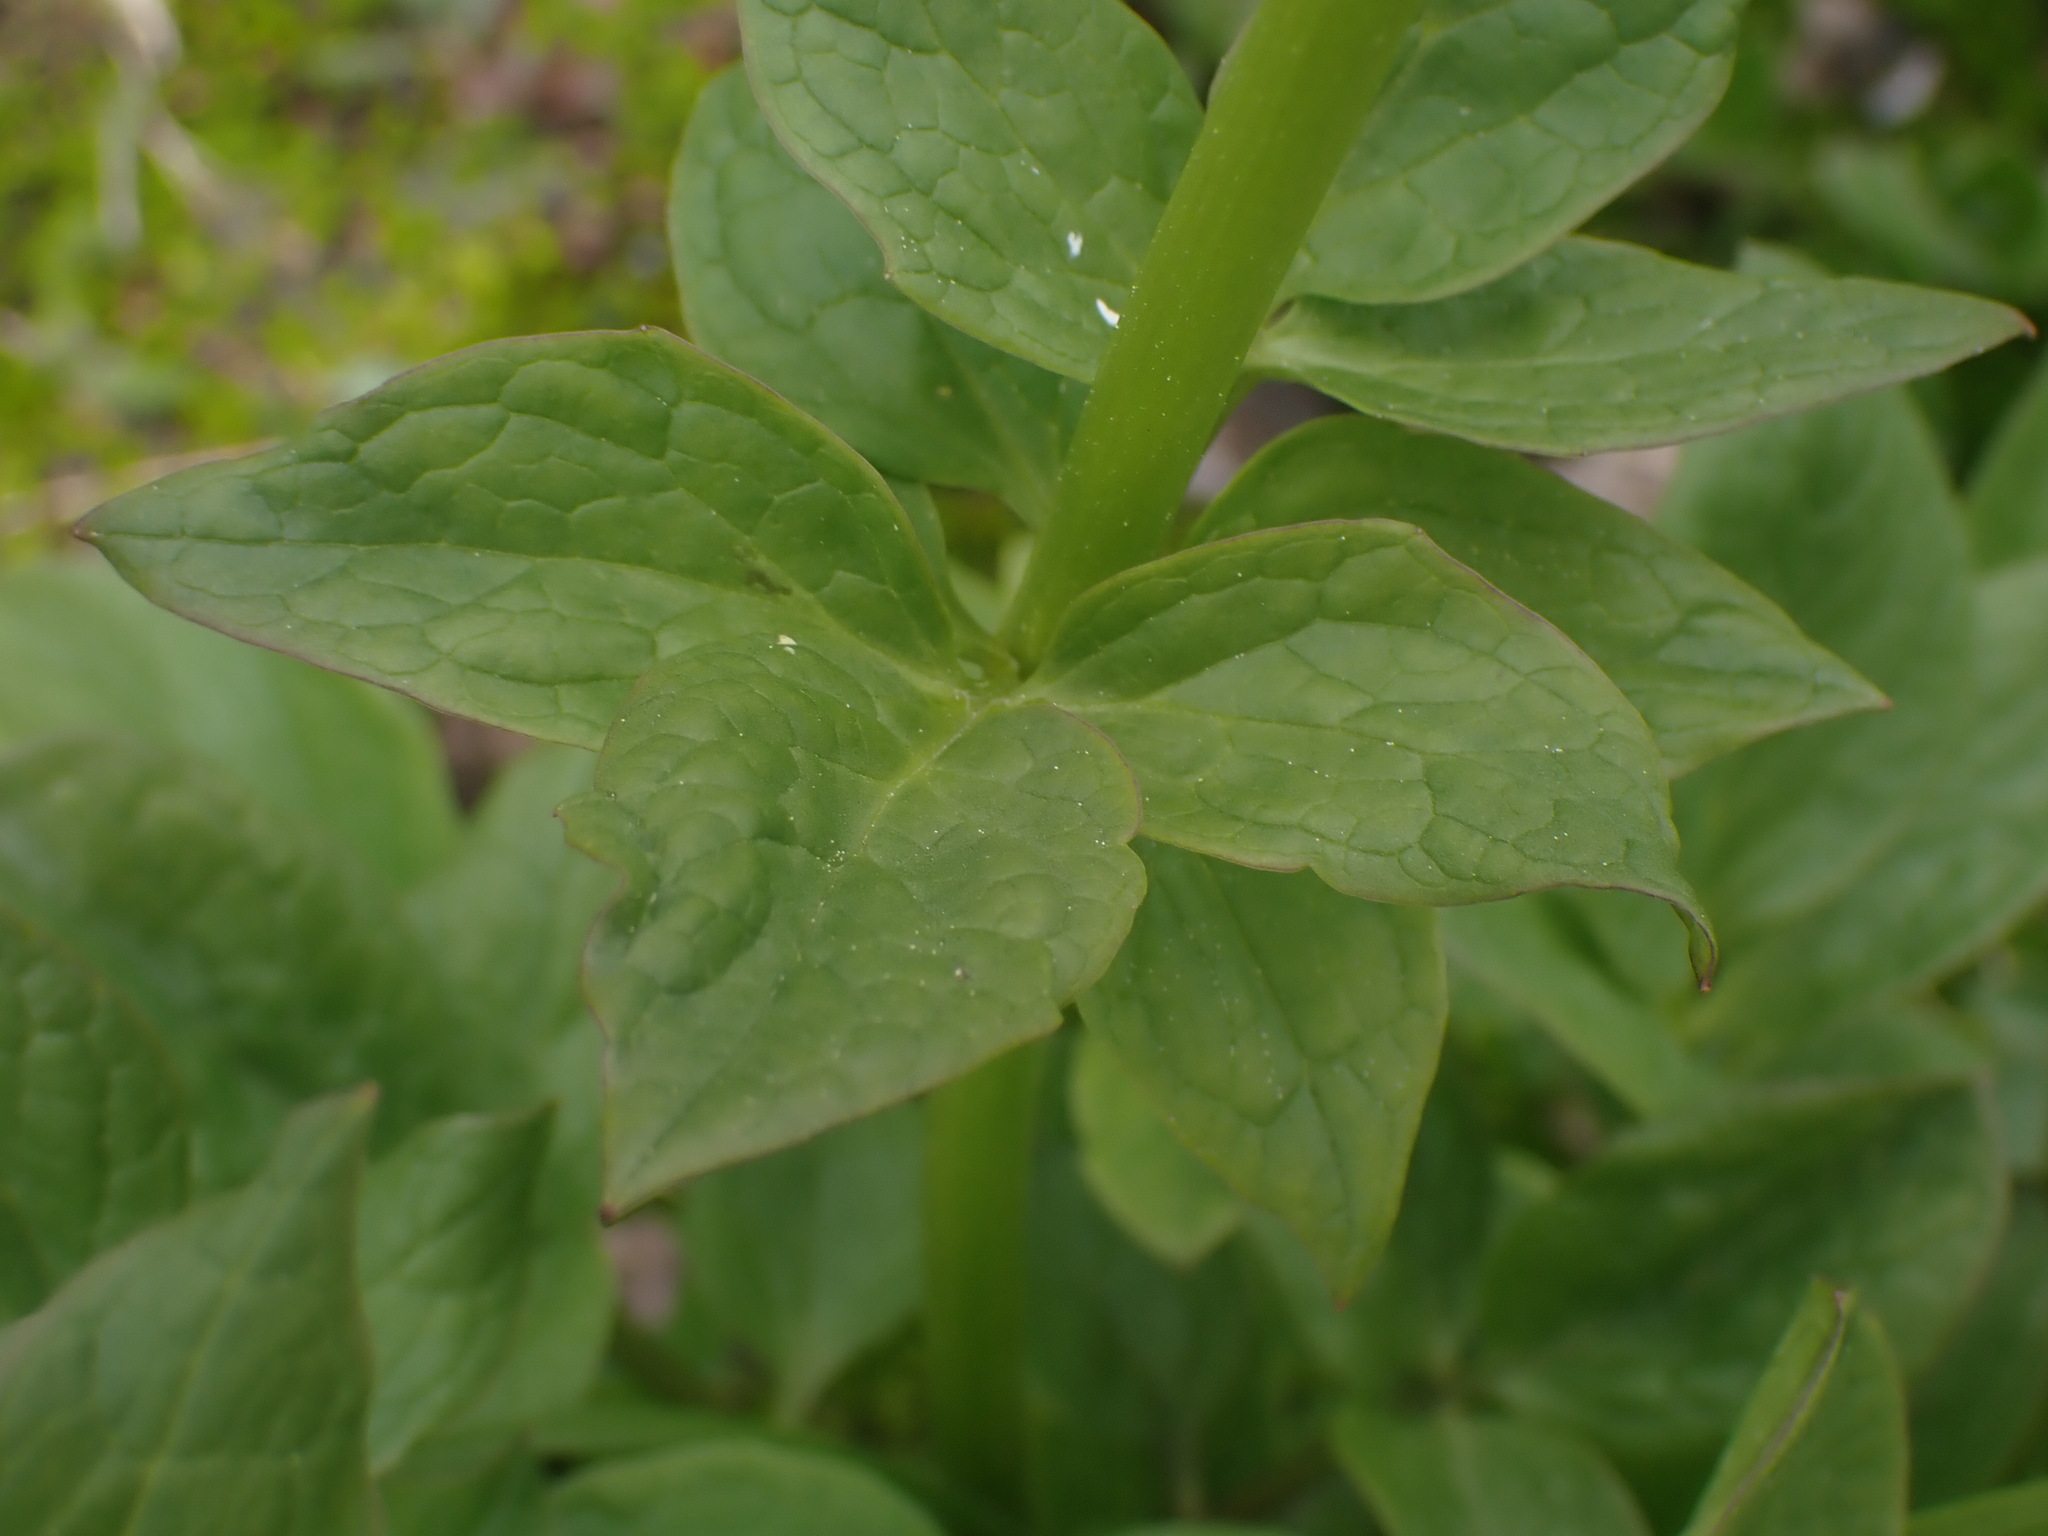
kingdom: Plantae
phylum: Tracheophyta
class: Magnoliopsida
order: Dipsacales
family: Caprifoliaceae
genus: Valeriana
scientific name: Valeriana sitchensis
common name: Pacific valerian
